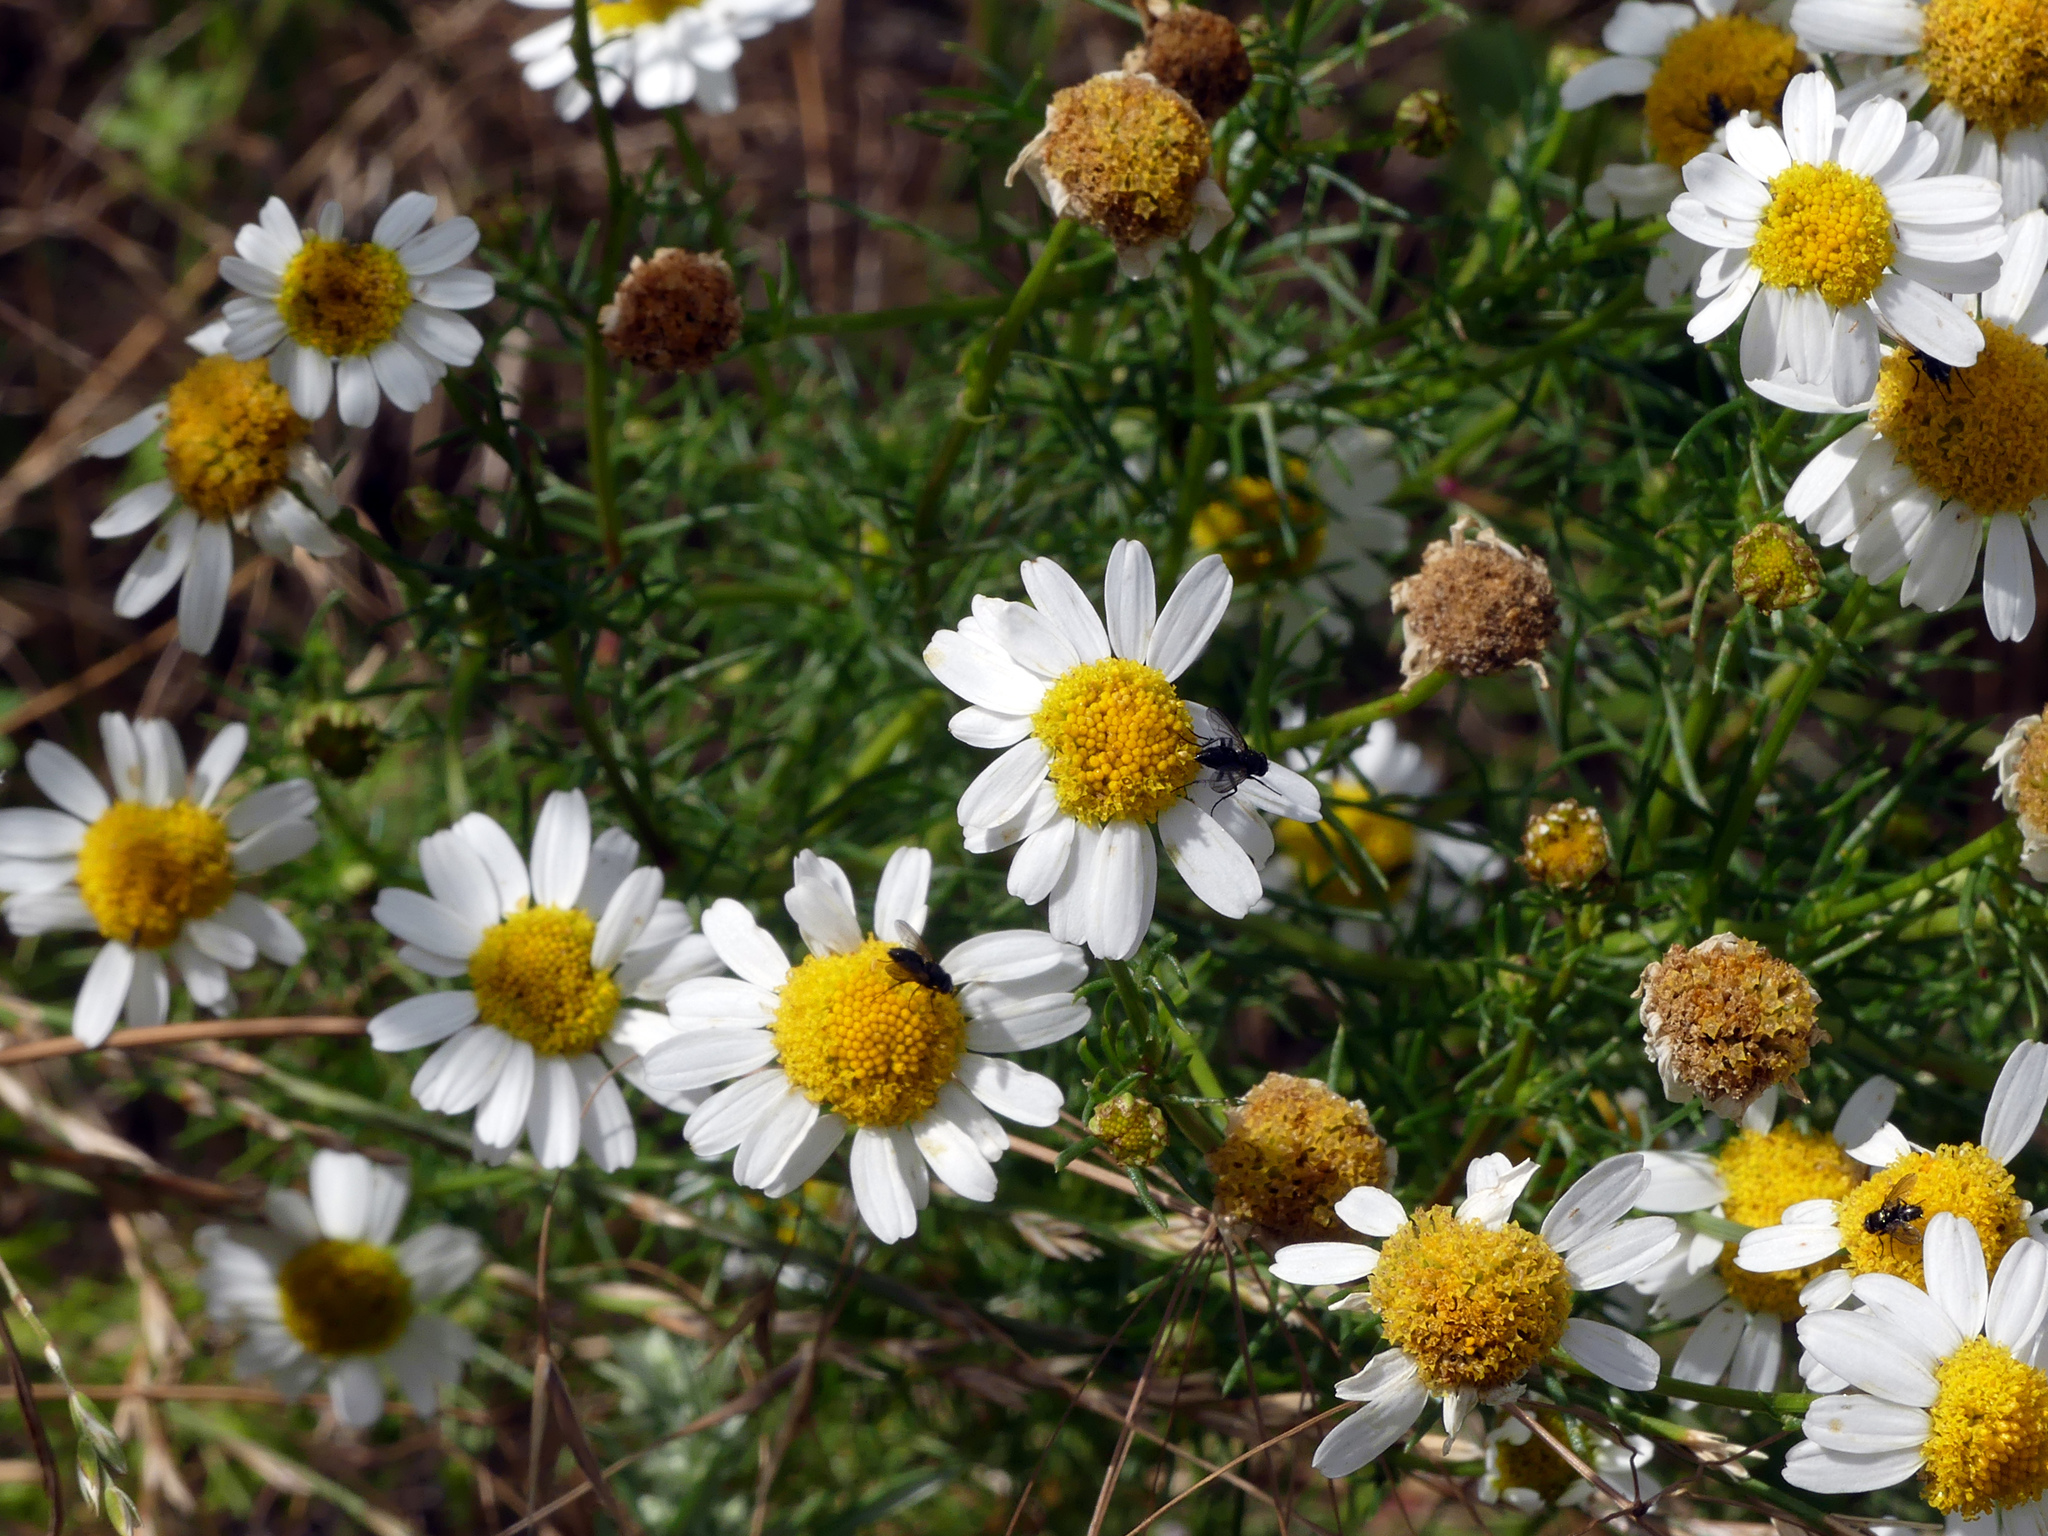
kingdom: Plantae
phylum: Tracheophyta
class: Magnoliopsida
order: Asterales
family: Asteraceae
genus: Tripleurospermum
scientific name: Tripleurospermum inodorum
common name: Scentless mayweed
